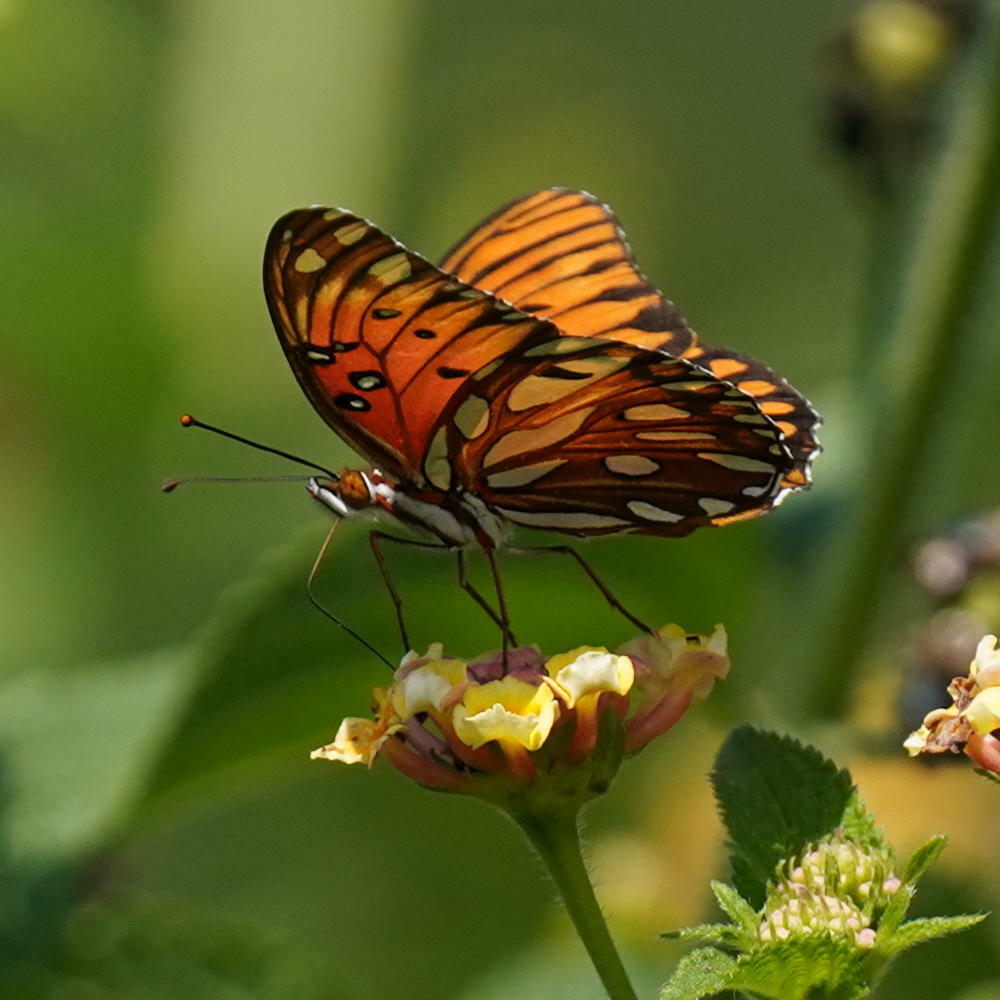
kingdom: Animalia
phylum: Arthropoda
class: Insecta
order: Lepidoptera
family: Nymphalidae
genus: Dione
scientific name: Dione vanillae
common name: Gulf fritillary
